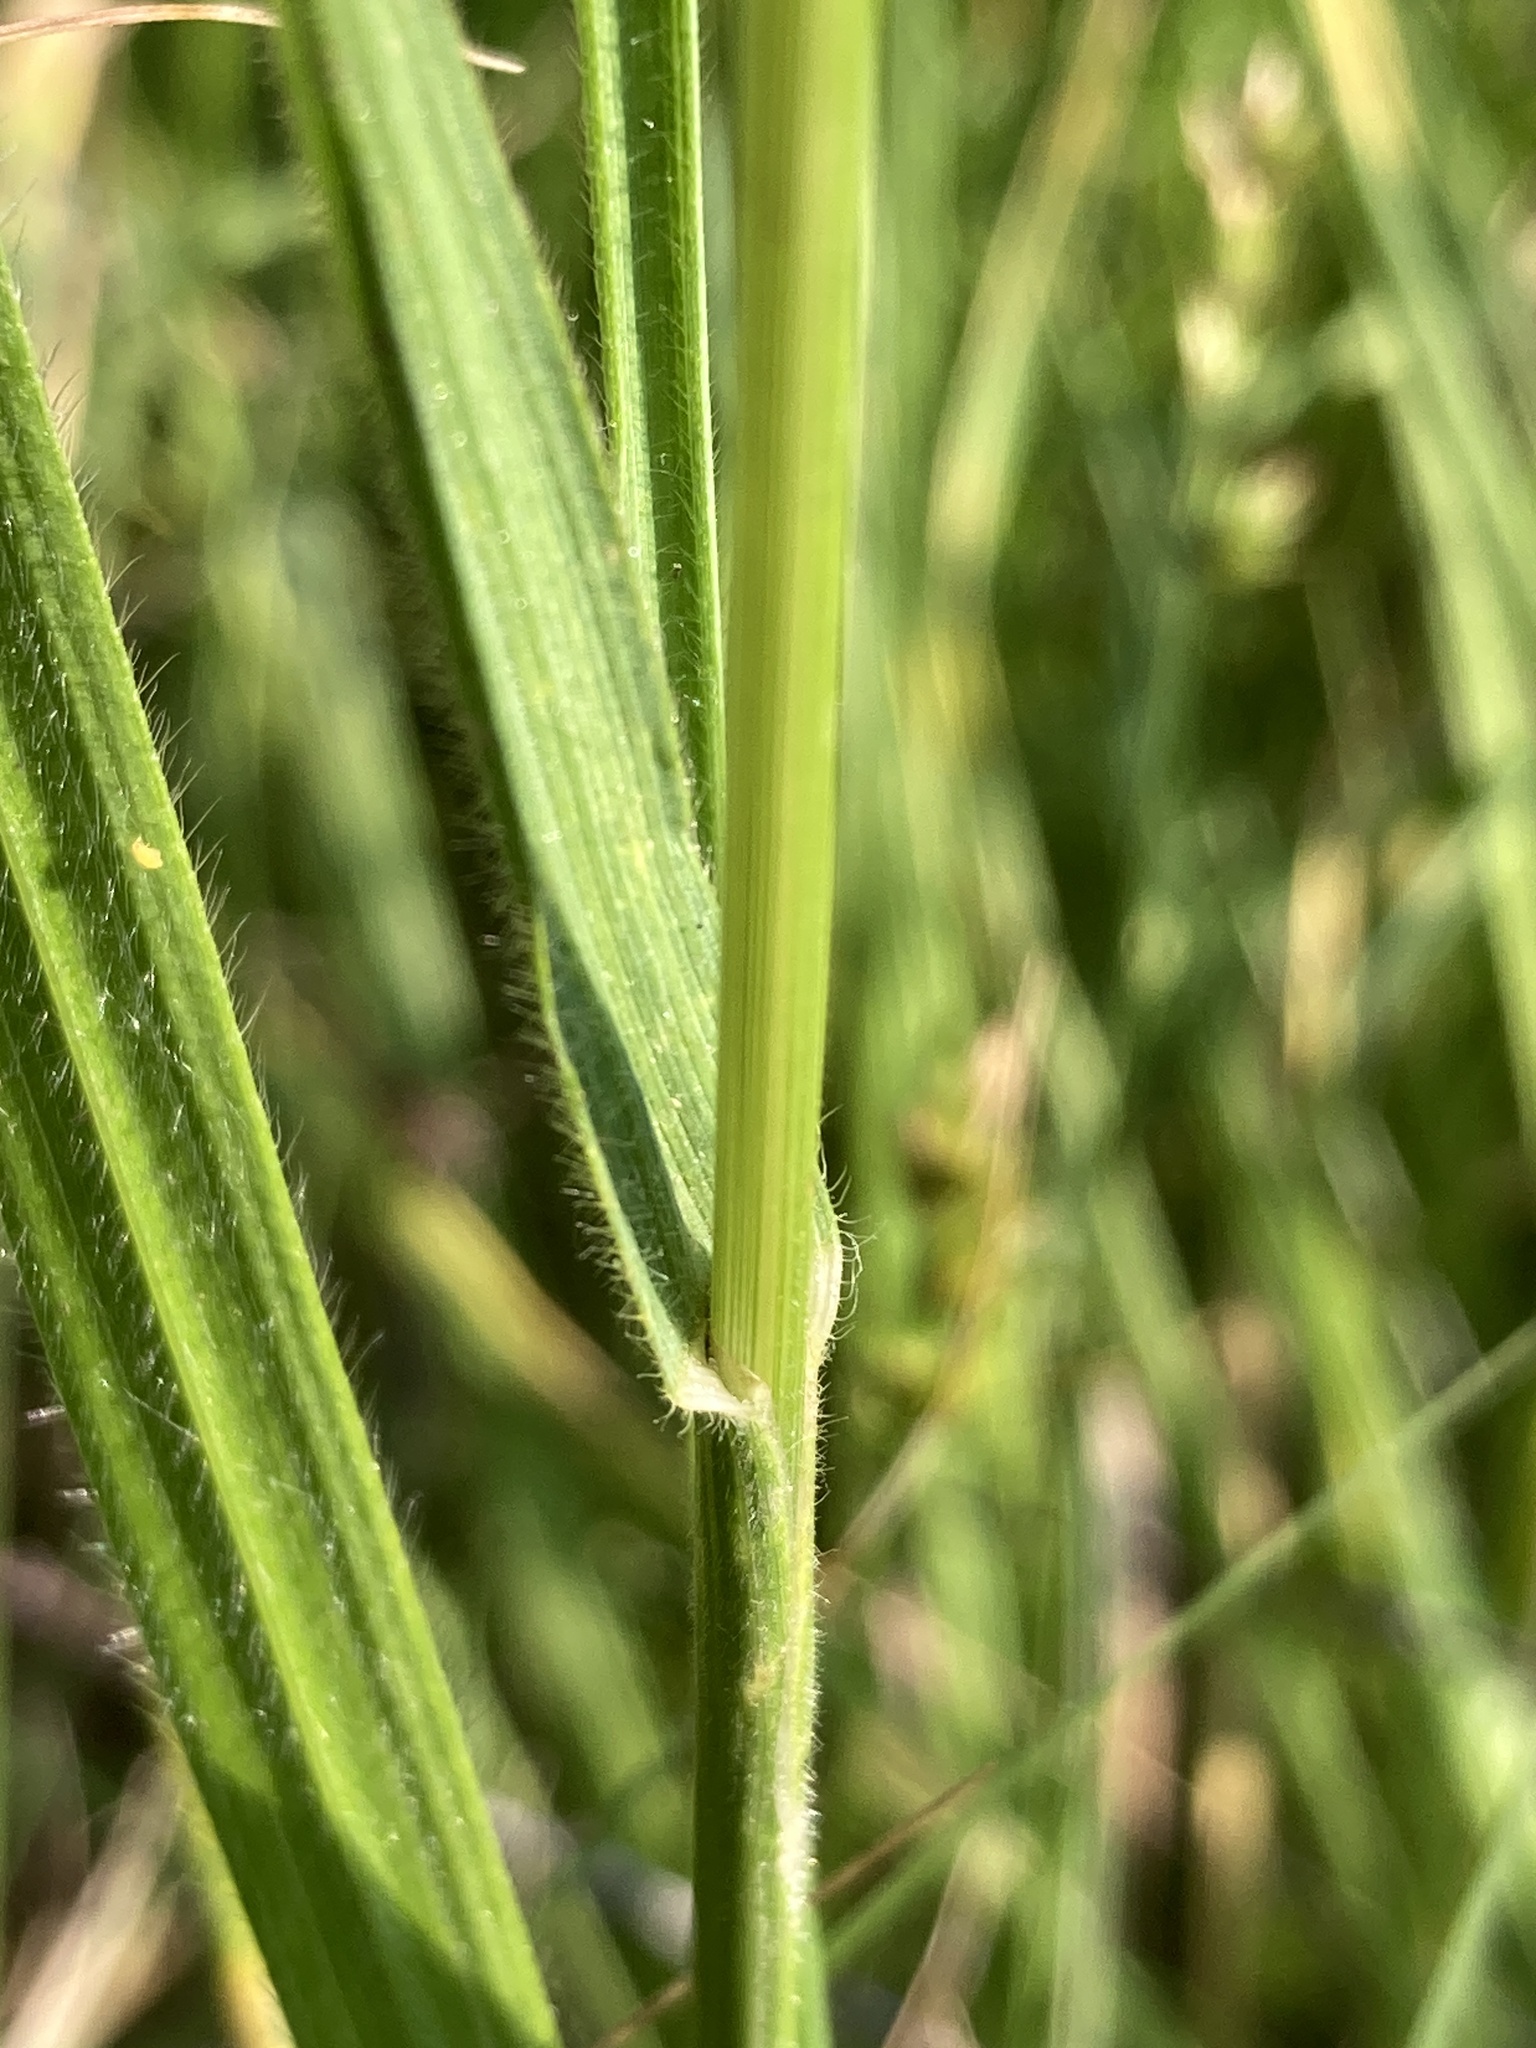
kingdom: Plantae
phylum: Tracheophyta
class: Liliopsida
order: Poales
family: Poaceae
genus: Bromus
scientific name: Bromus riparius
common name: Meadow brome
